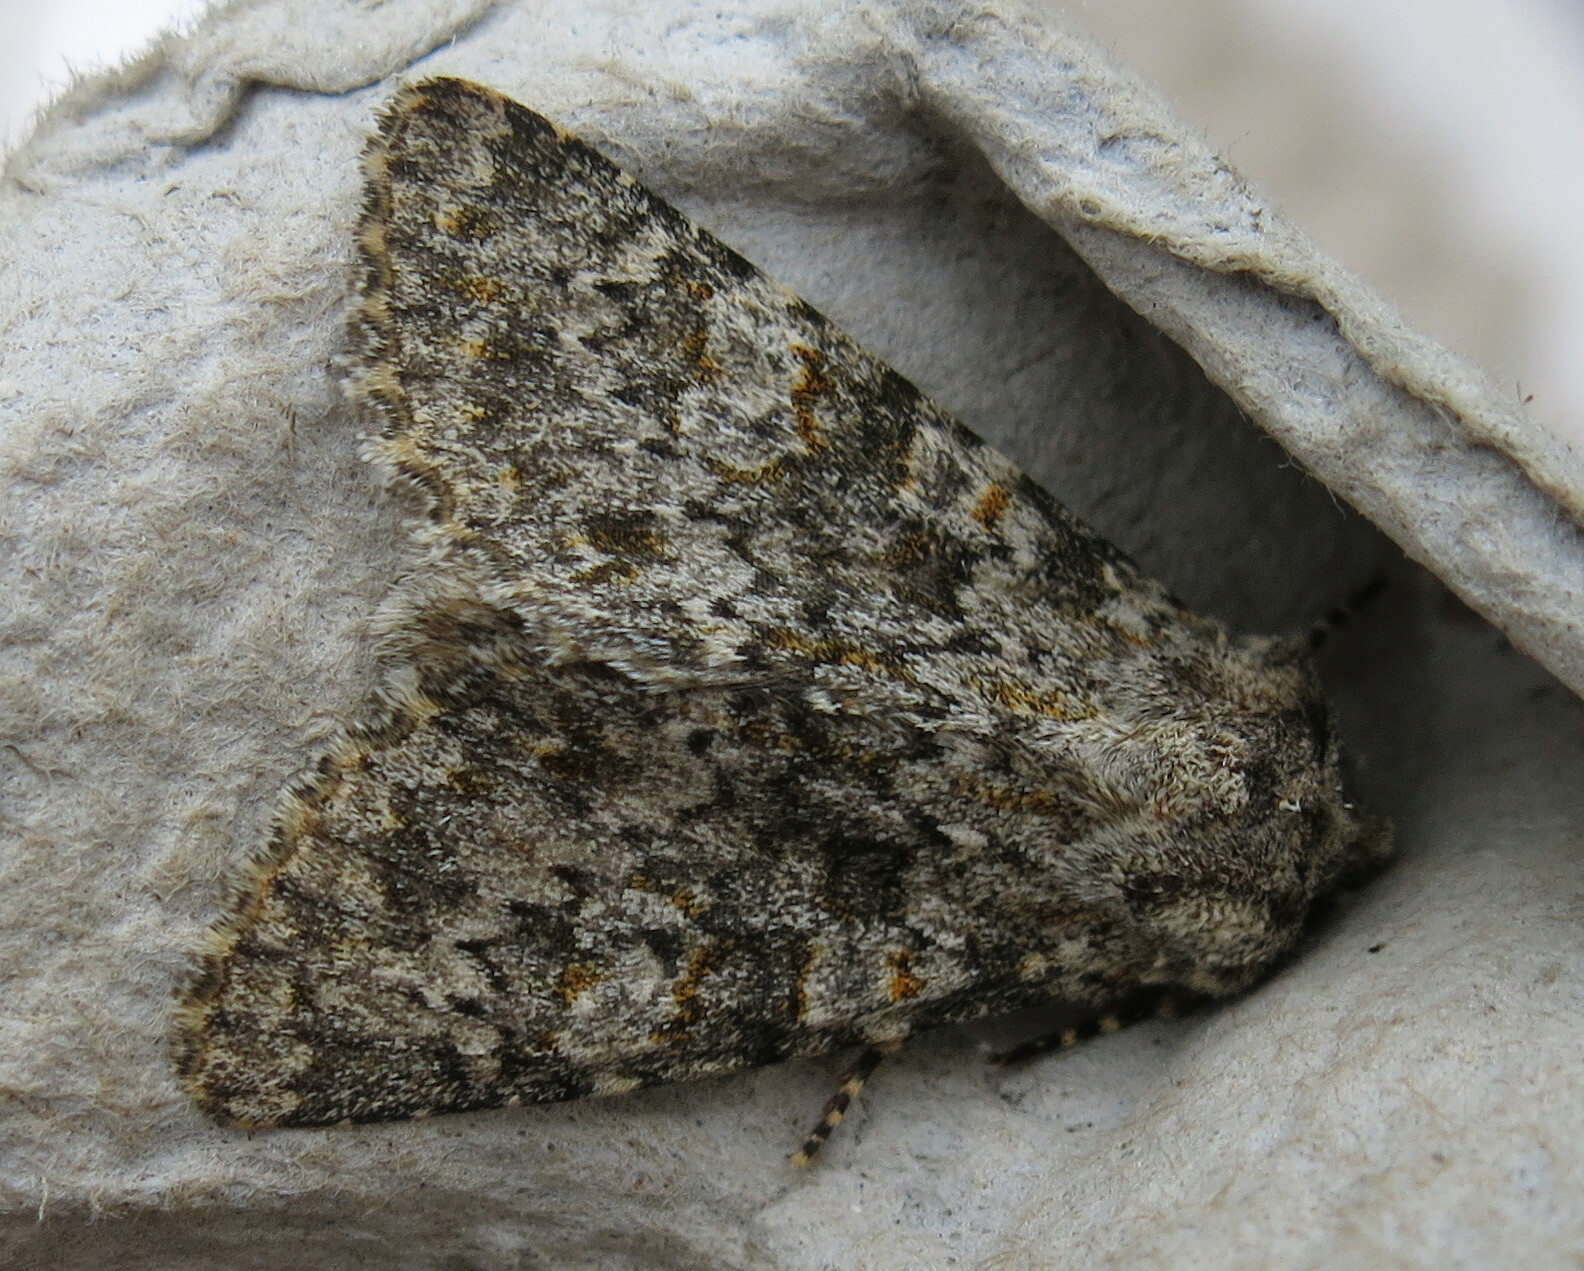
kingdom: Animalia
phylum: Arthropoda
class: Insecta
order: Lepidoptera
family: Noctuidae
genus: Polymixis
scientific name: Polymixis flavicincta
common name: Large ranunculus
